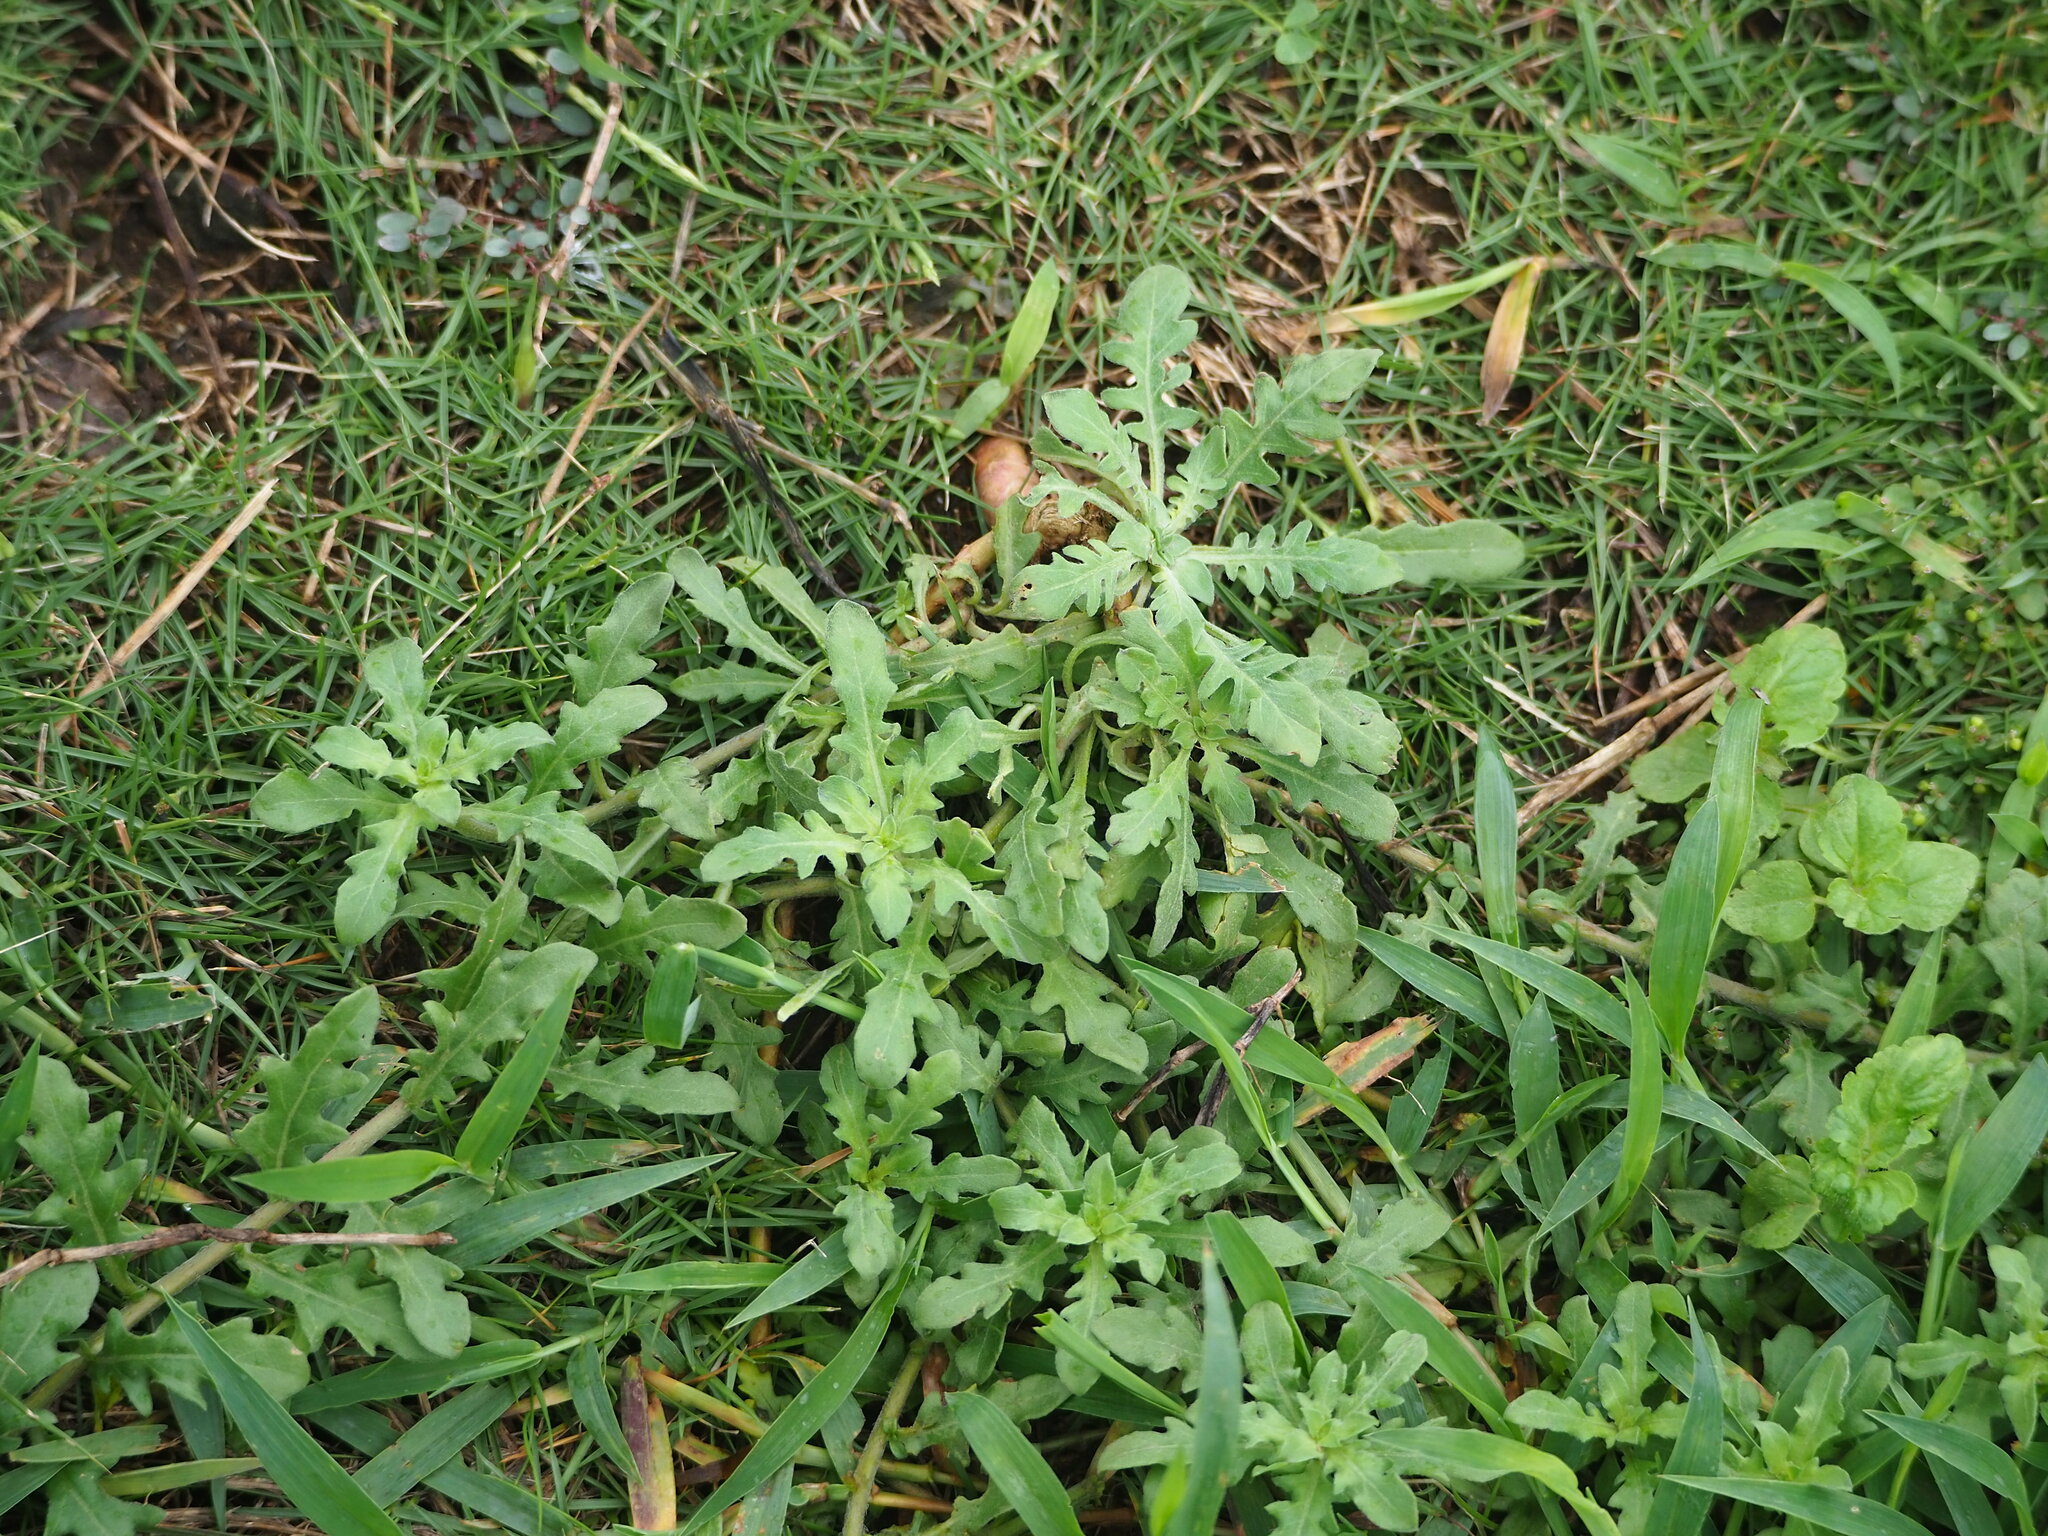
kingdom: Plantae
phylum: Tracheophyta
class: Magnoliopsida
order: Myrtales
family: Onagraceae
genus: Oenothera
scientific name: Oenothera laciniata
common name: Cut-leaved evening-primrose
